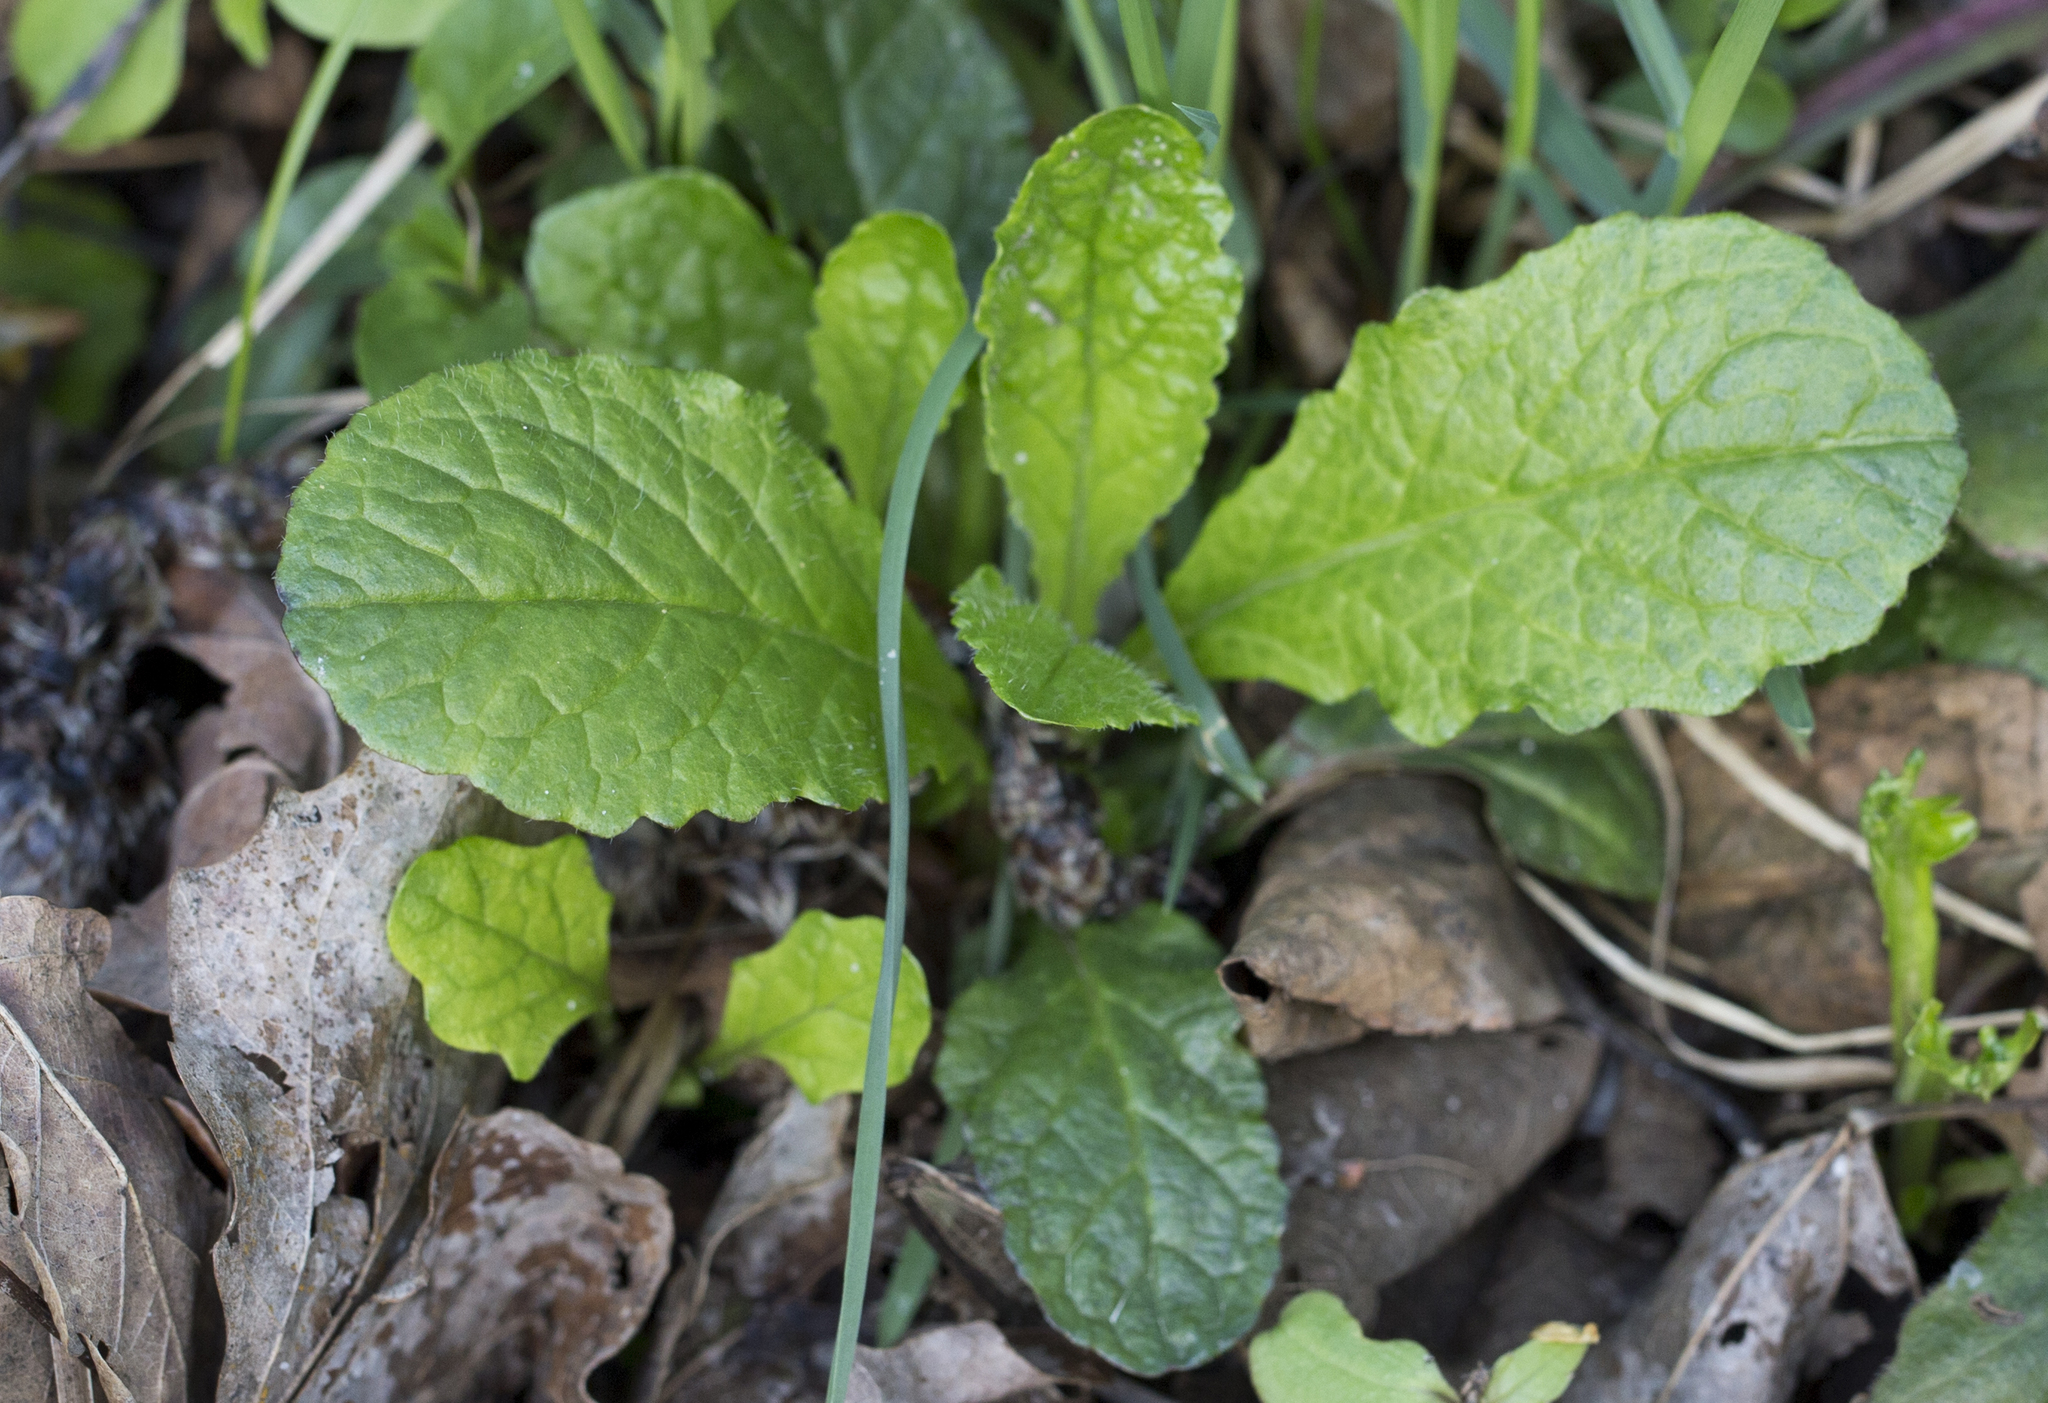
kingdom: Plantae
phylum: Tracheophyta
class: Magnoliopsida
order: Lamiales
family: Lamiaceae
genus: Ajuga
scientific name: Ajuga reptans
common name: Bugle
